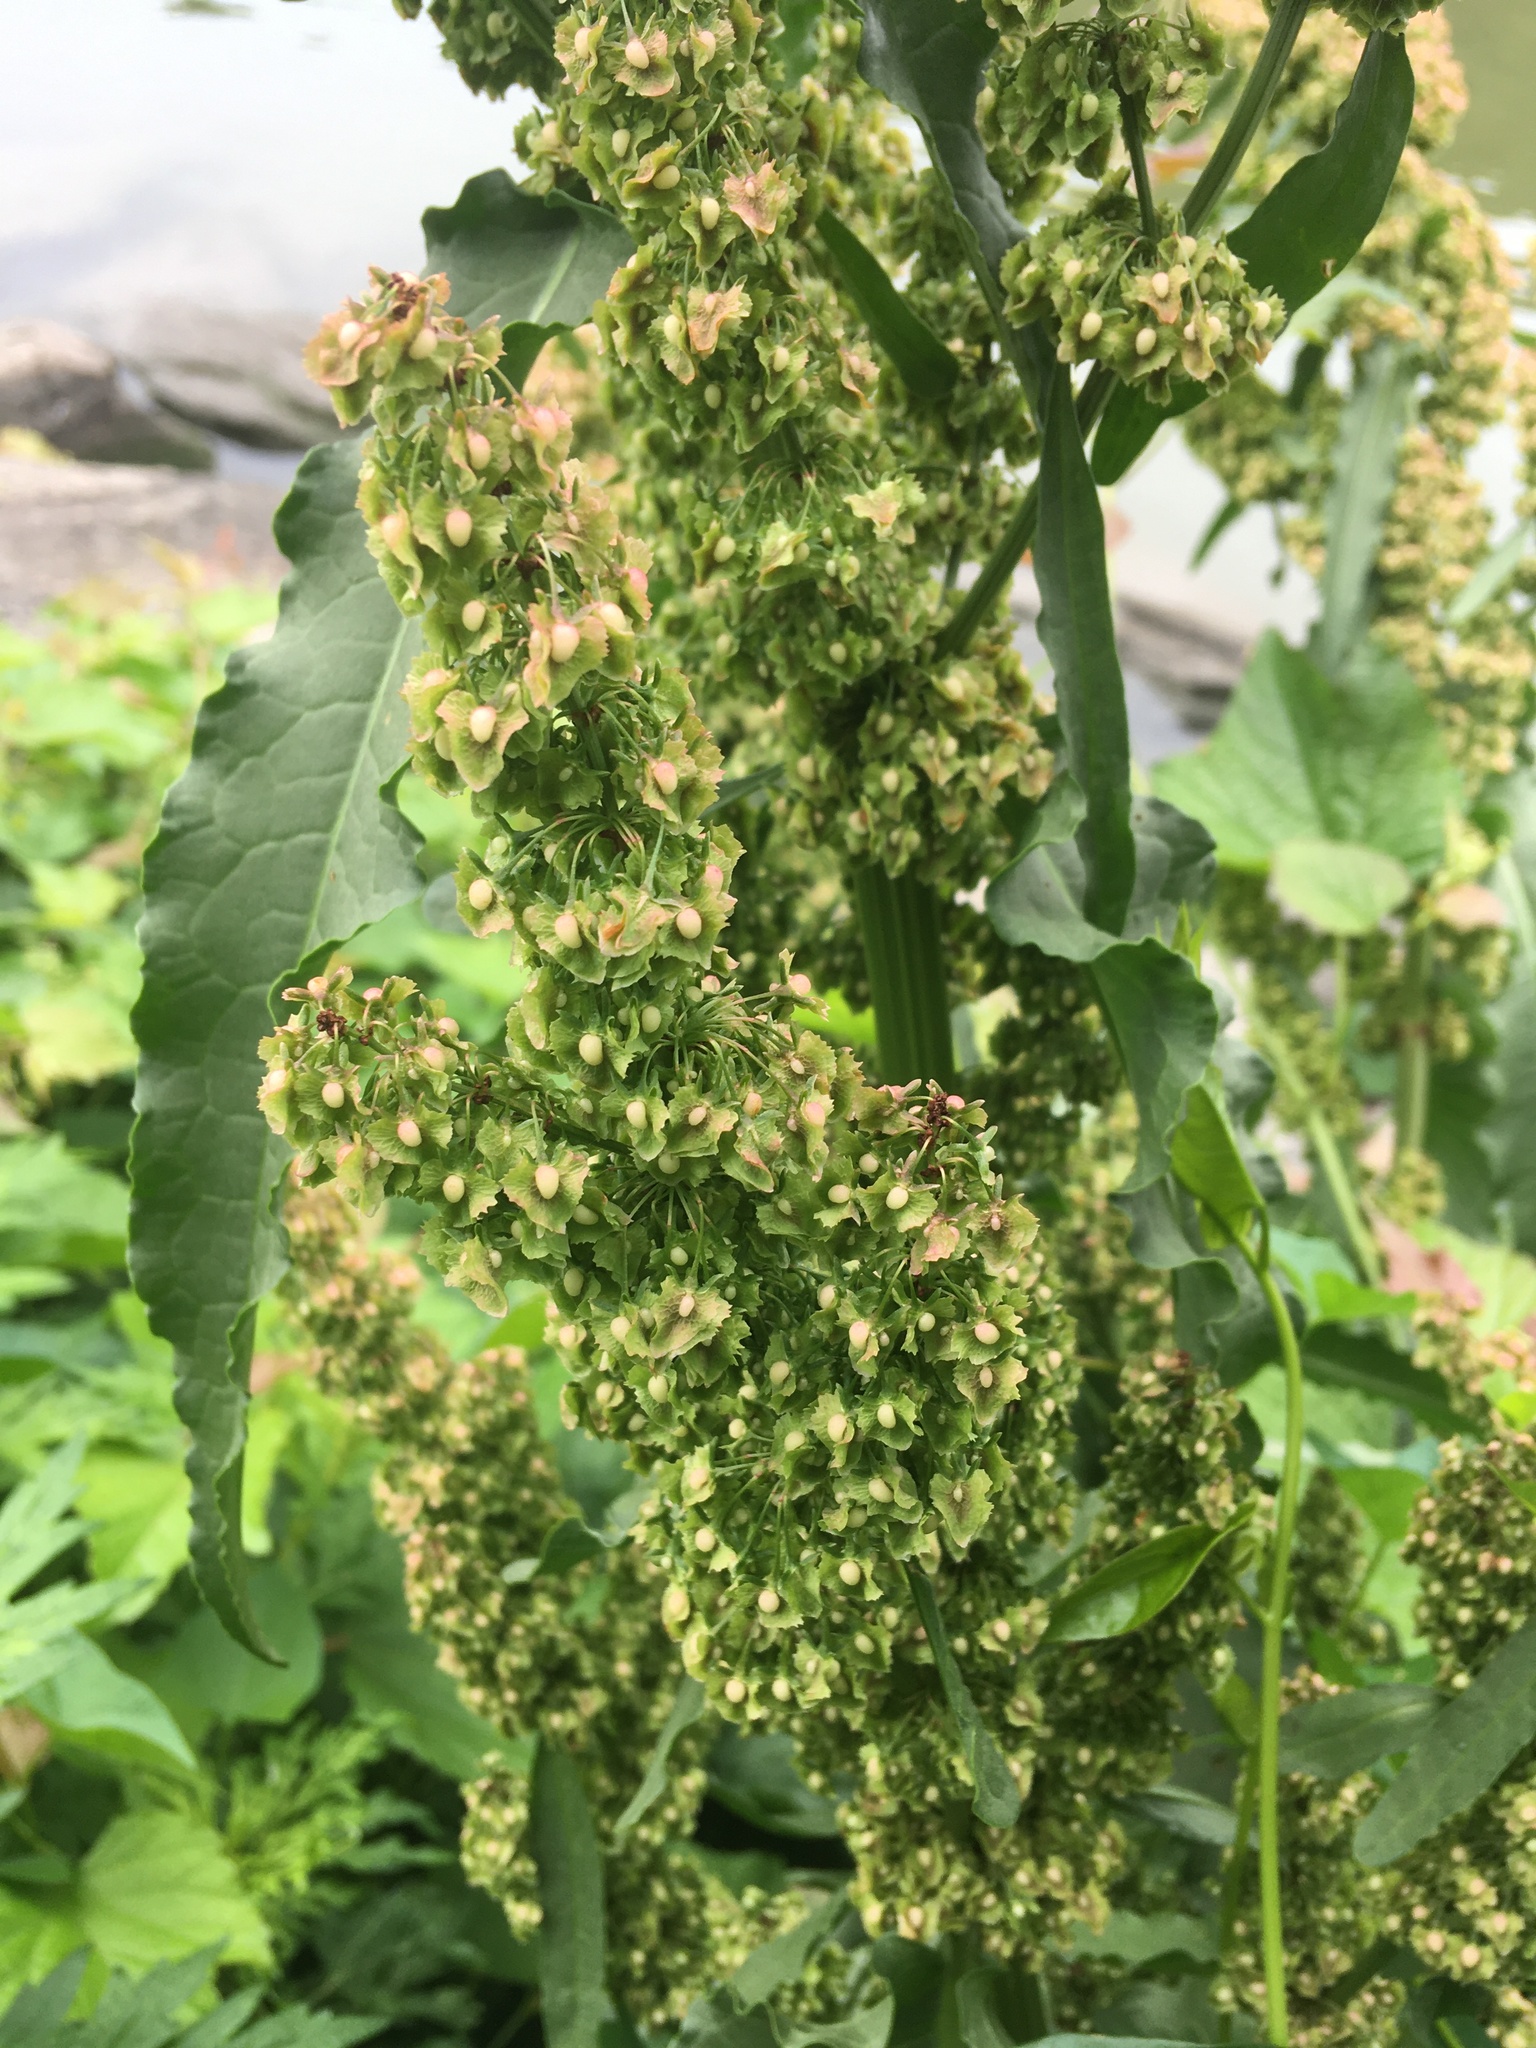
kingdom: Plantae
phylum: Tracheophyta
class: Magnoliopsida
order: Caryophyllales
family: Polygonaceae
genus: Rumex
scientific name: Rumex cristatus
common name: Greek dock
